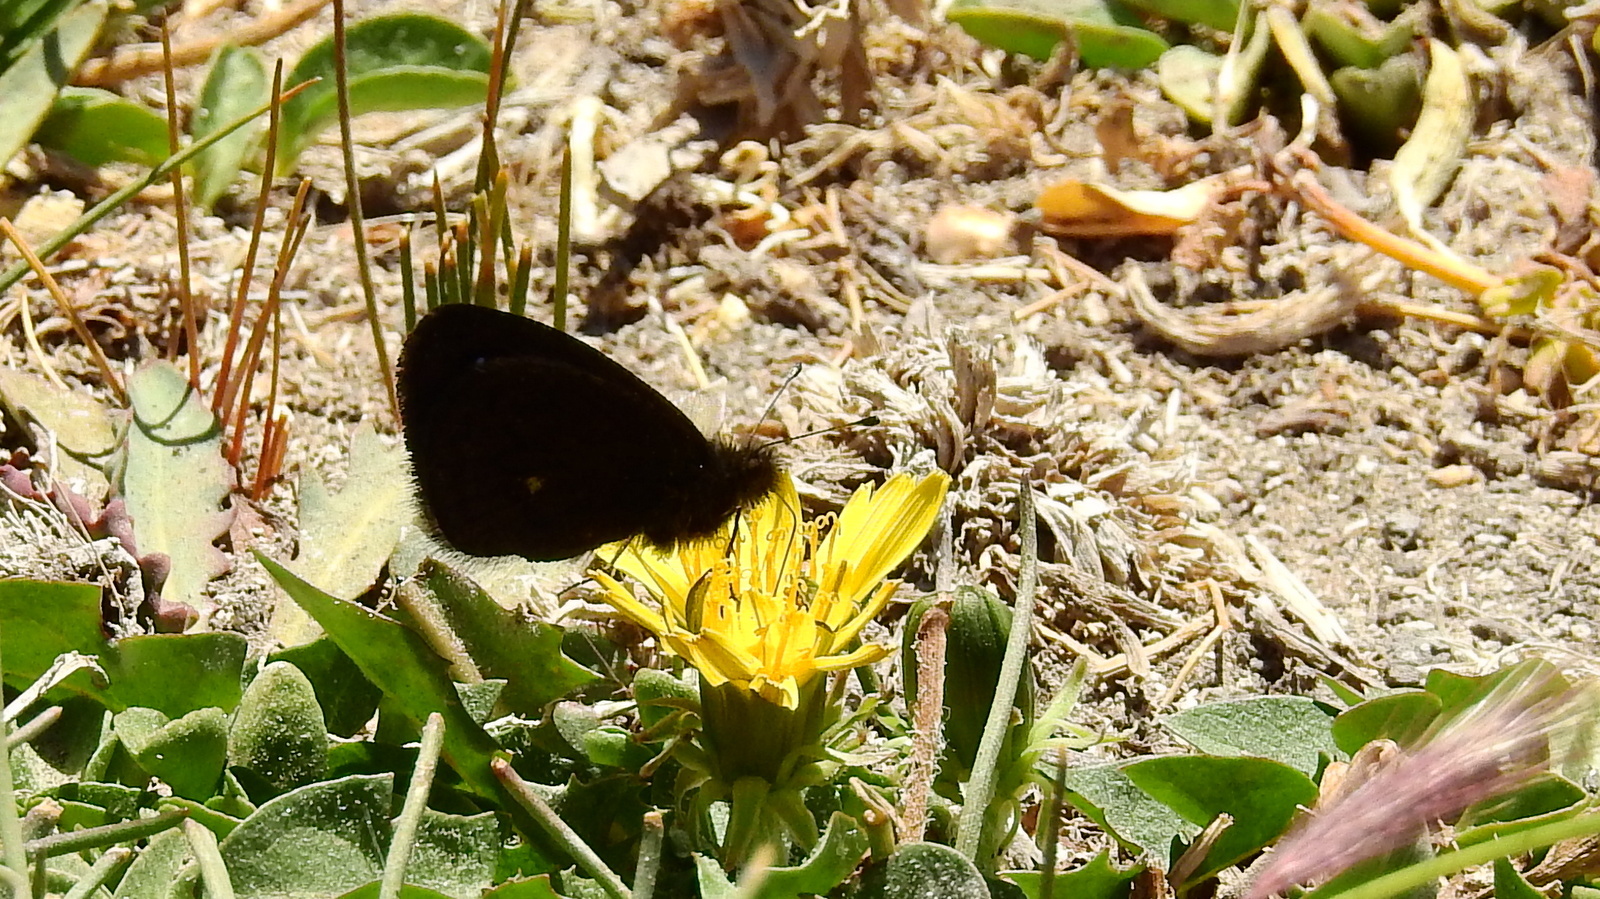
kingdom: Animalia
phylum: Arthropoda
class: Insecta
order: Lepidoptera
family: Nymphalidae
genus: Faunula
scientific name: Faunula leucoglene
